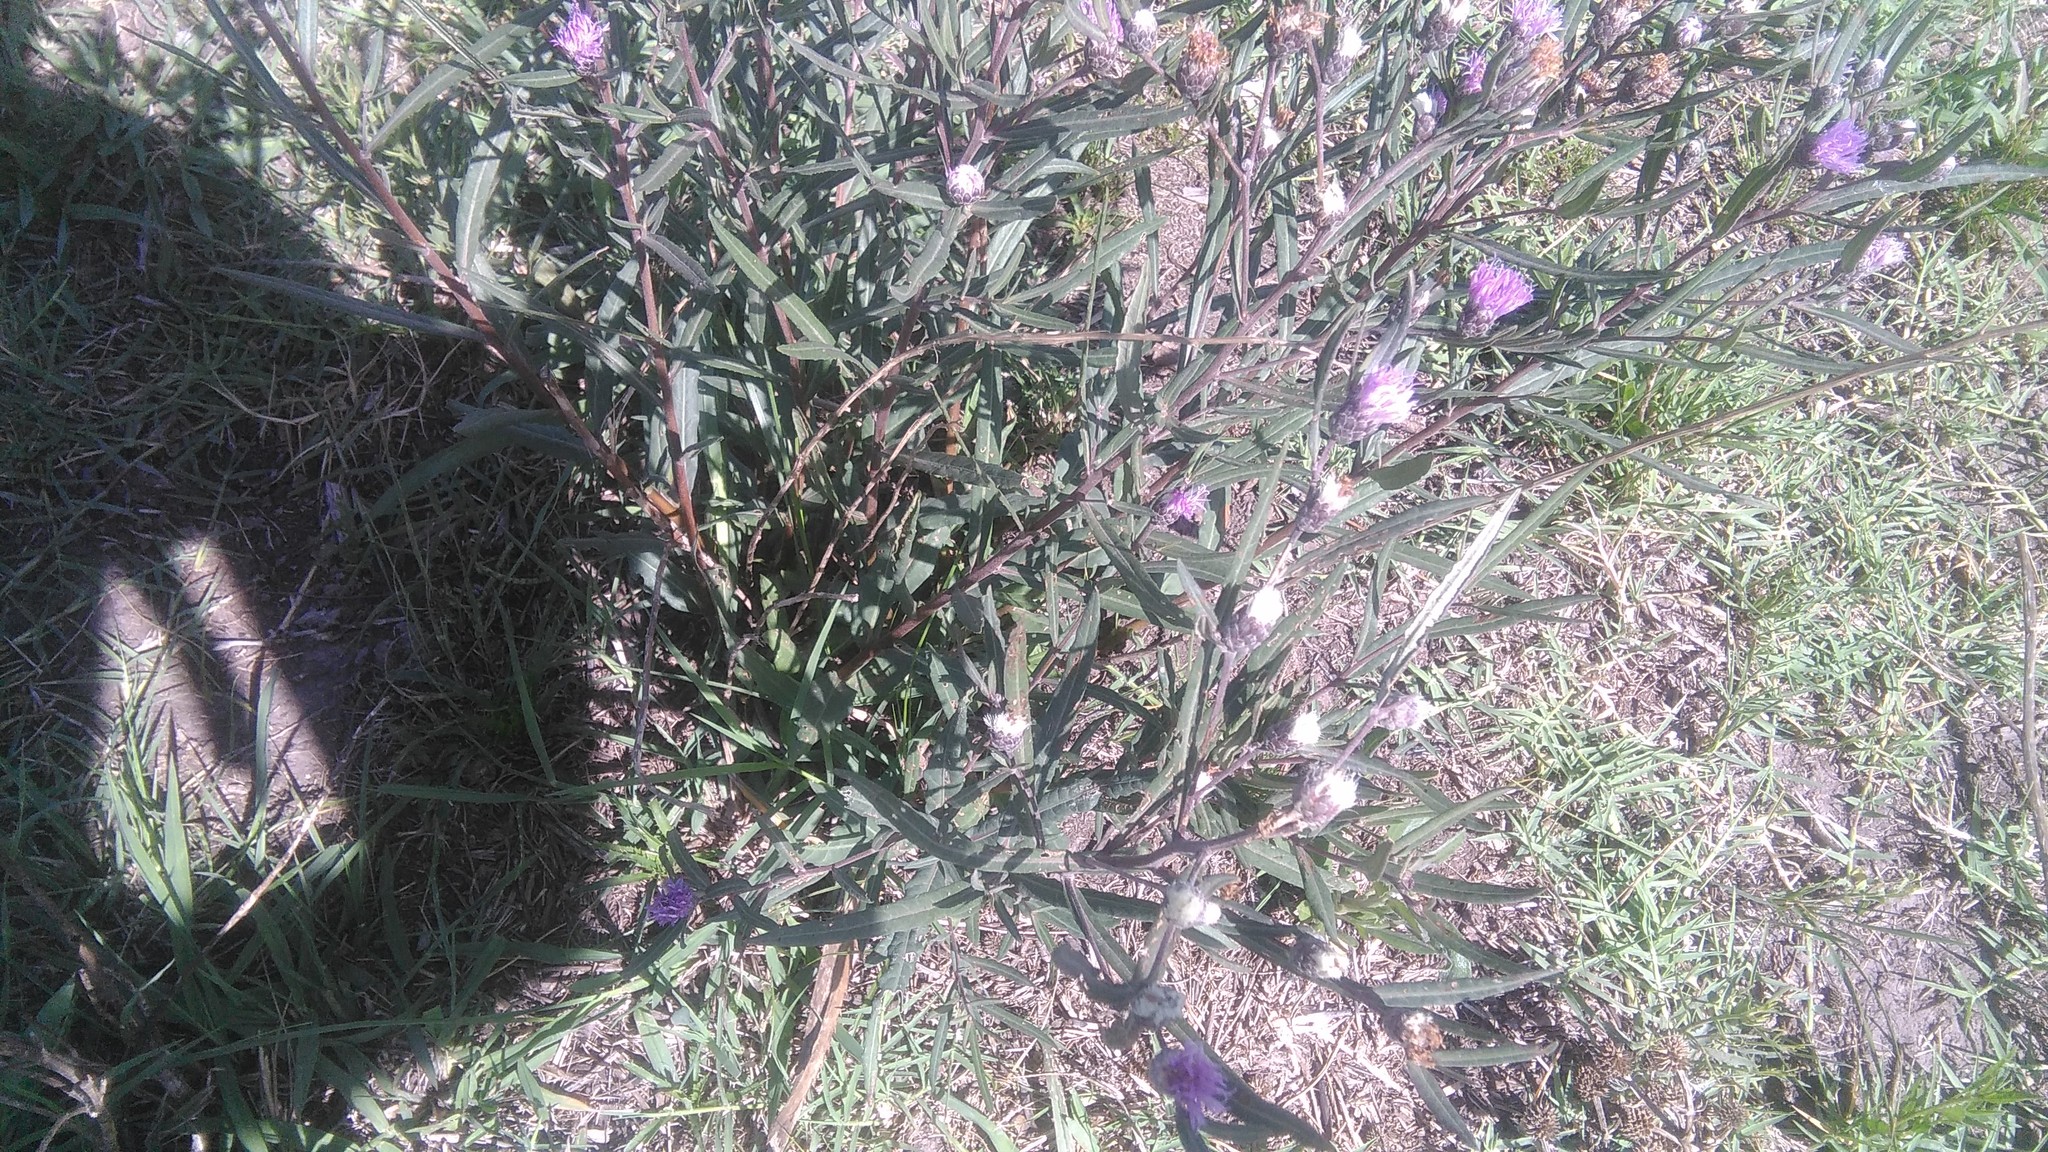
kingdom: Plantae
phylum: Tracheophyta
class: Magnoliopsida
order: Asterales
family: Asteraceae
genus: Lessingianthus
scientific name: Lessingianthus rubricaulis
